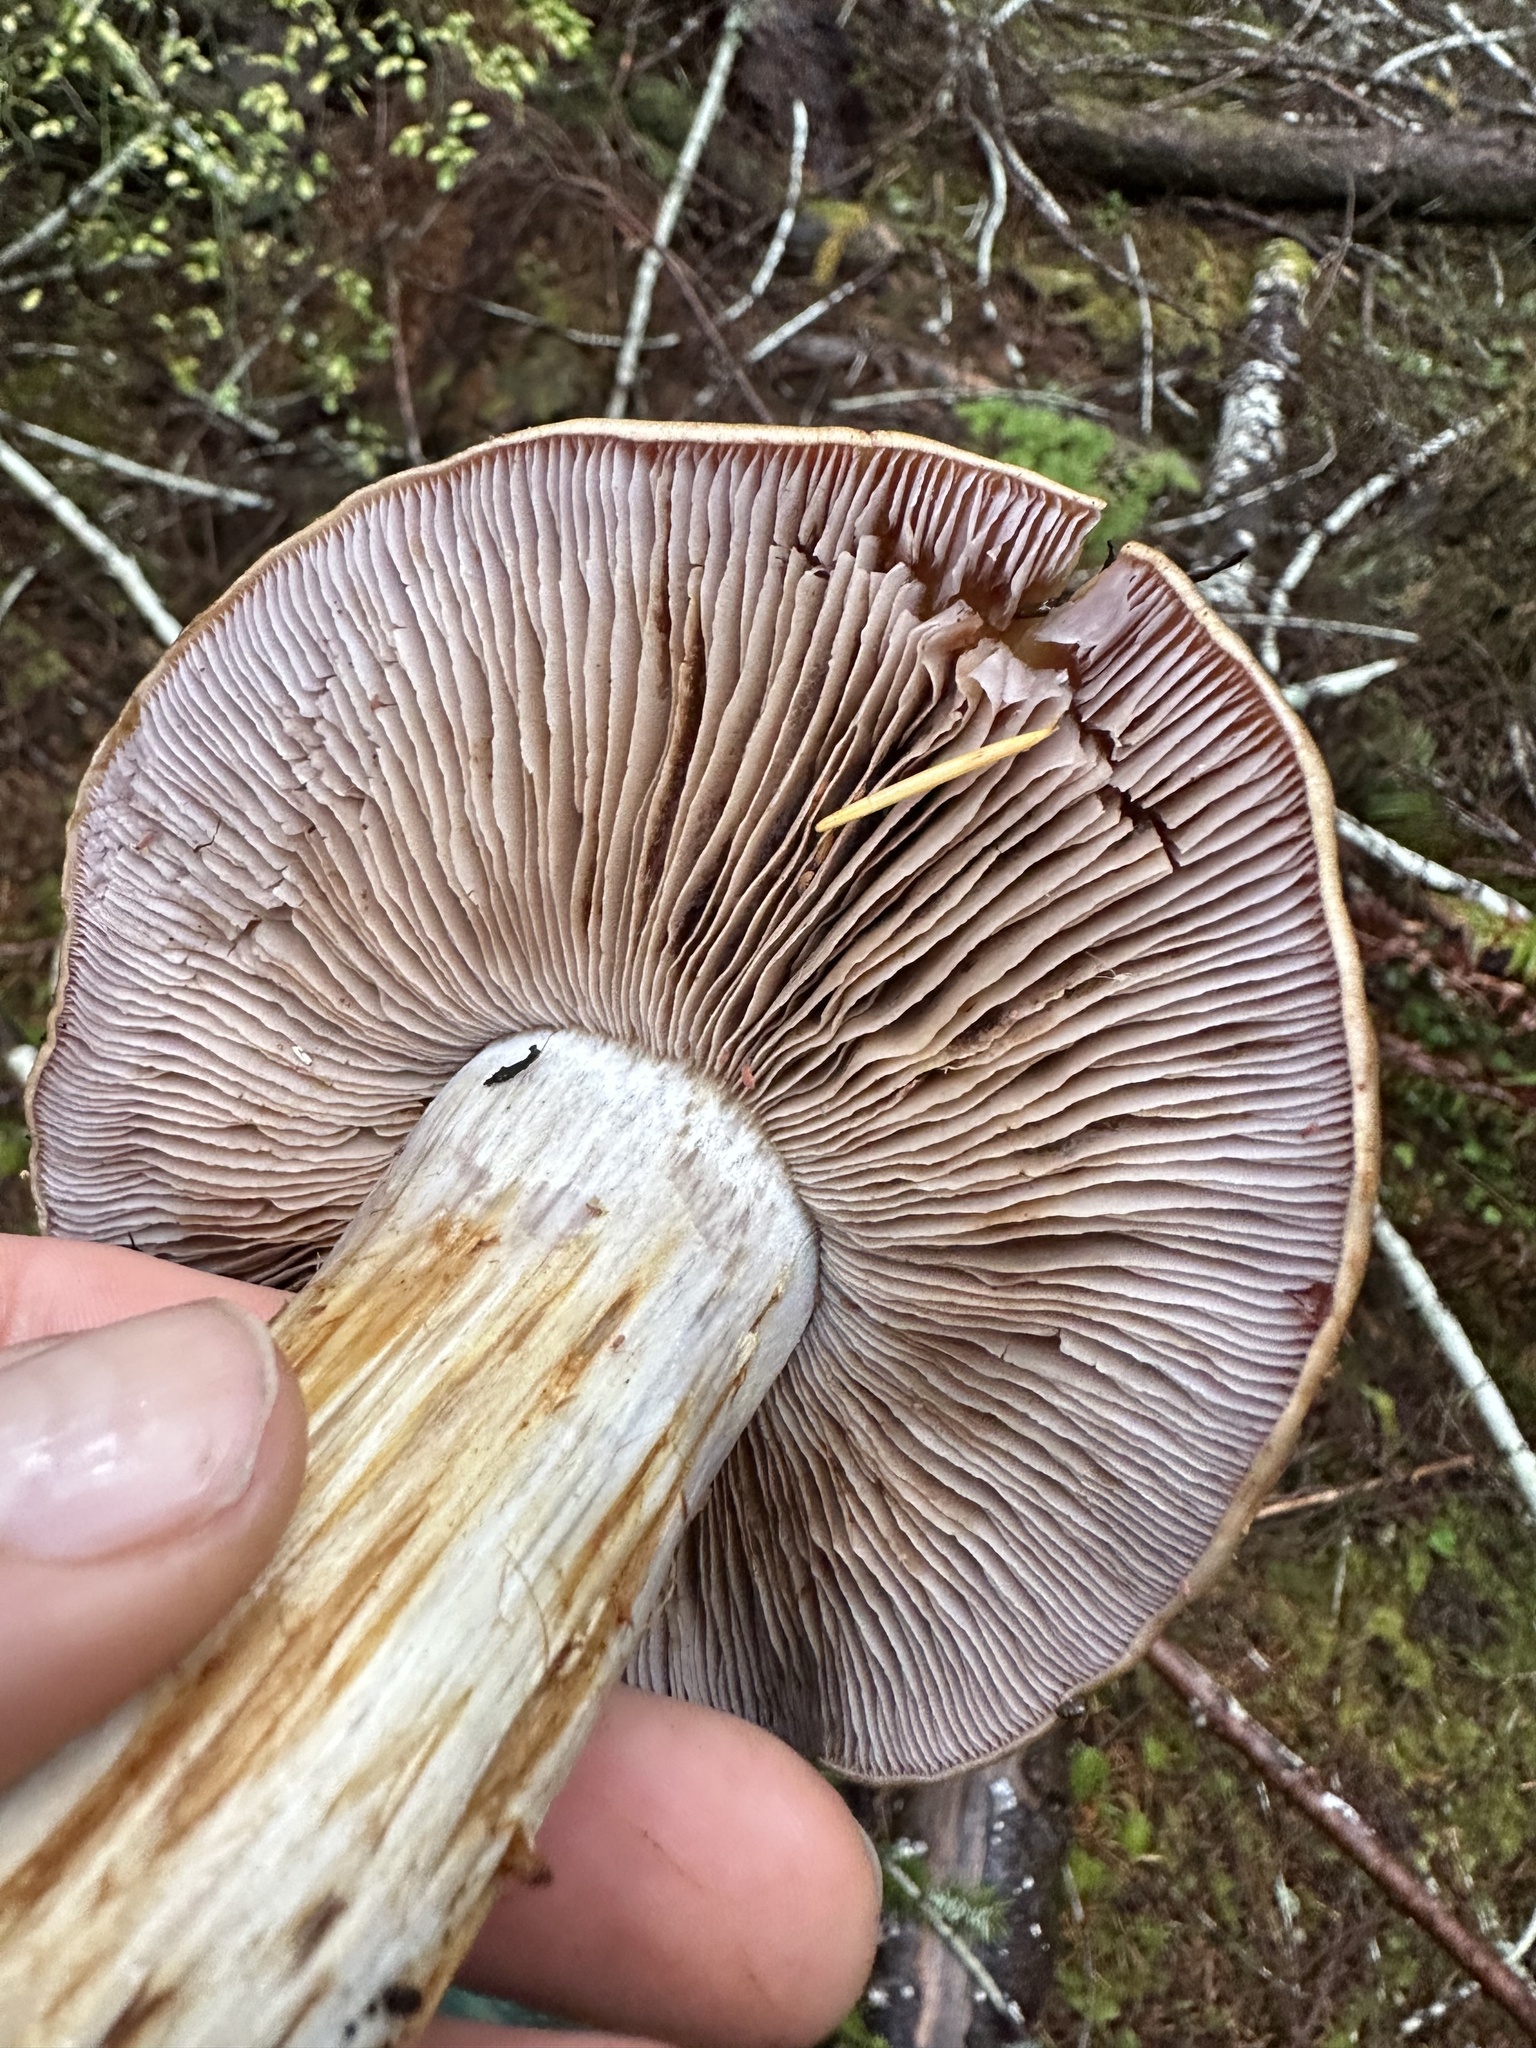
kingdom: Fungi
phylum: Basidiomycota
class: Agaricomycetes
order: Agaricales
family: Cortinariaceae
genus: Phlegmacium
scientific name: Phlegmacium glaucopus
